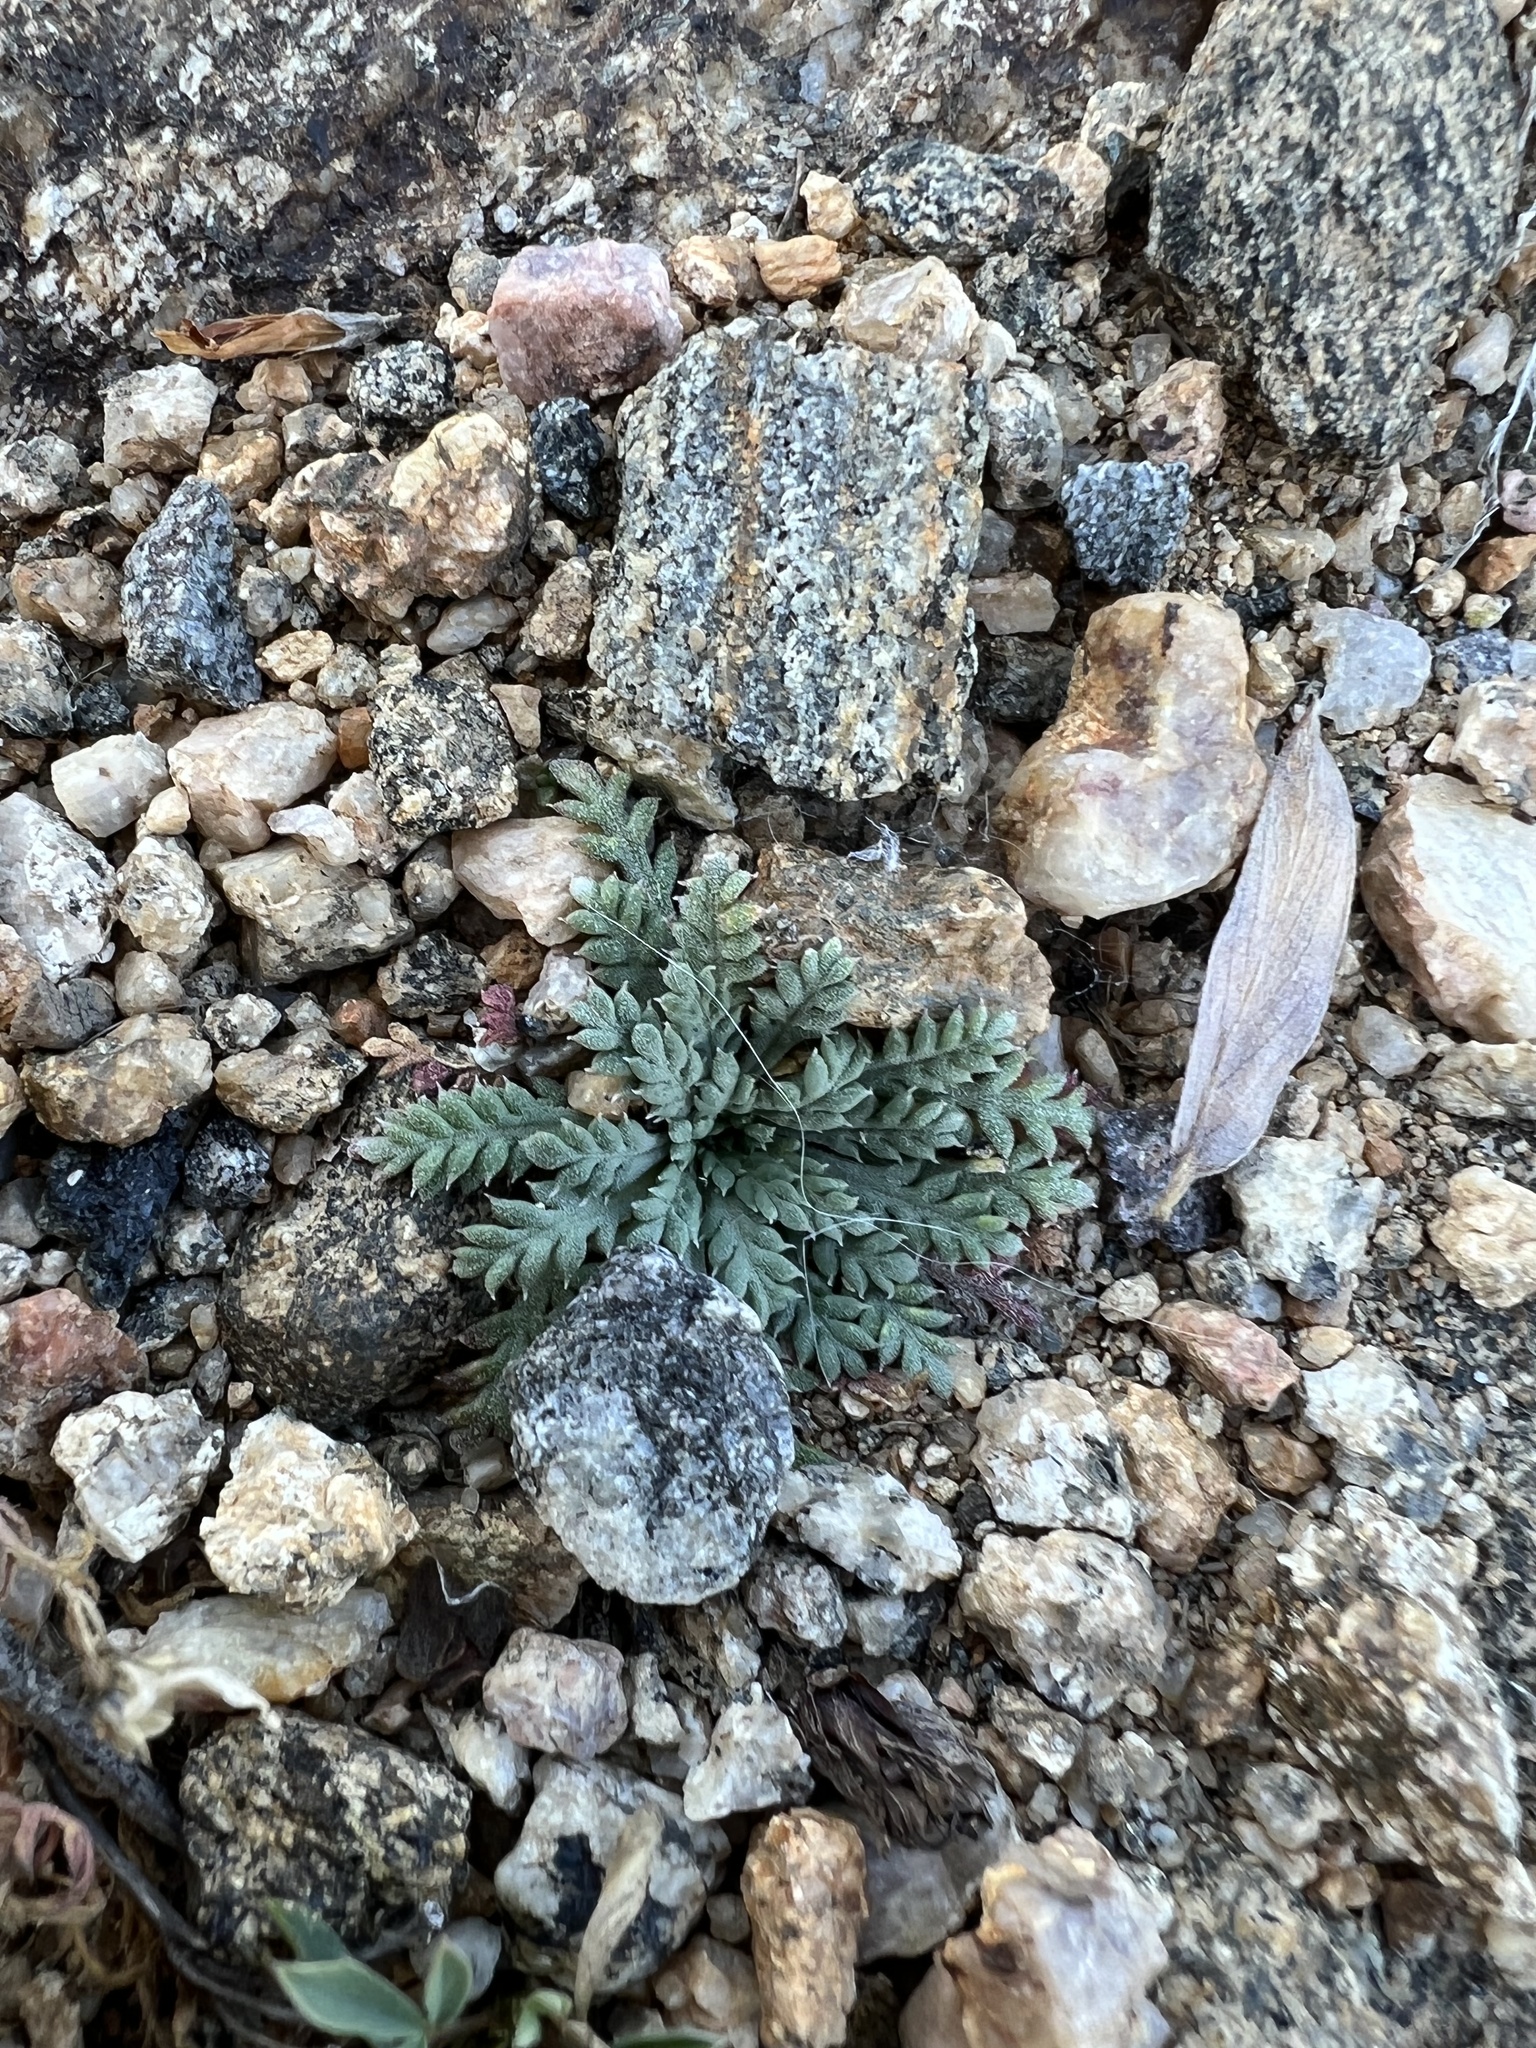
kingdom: Plantae
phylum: Tracheophyta
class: Magnoliopsida
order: Ericales
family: Polemoniaceae
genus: Aliciella
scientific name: Aliciella pinnatifida
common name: Sticky gilia
